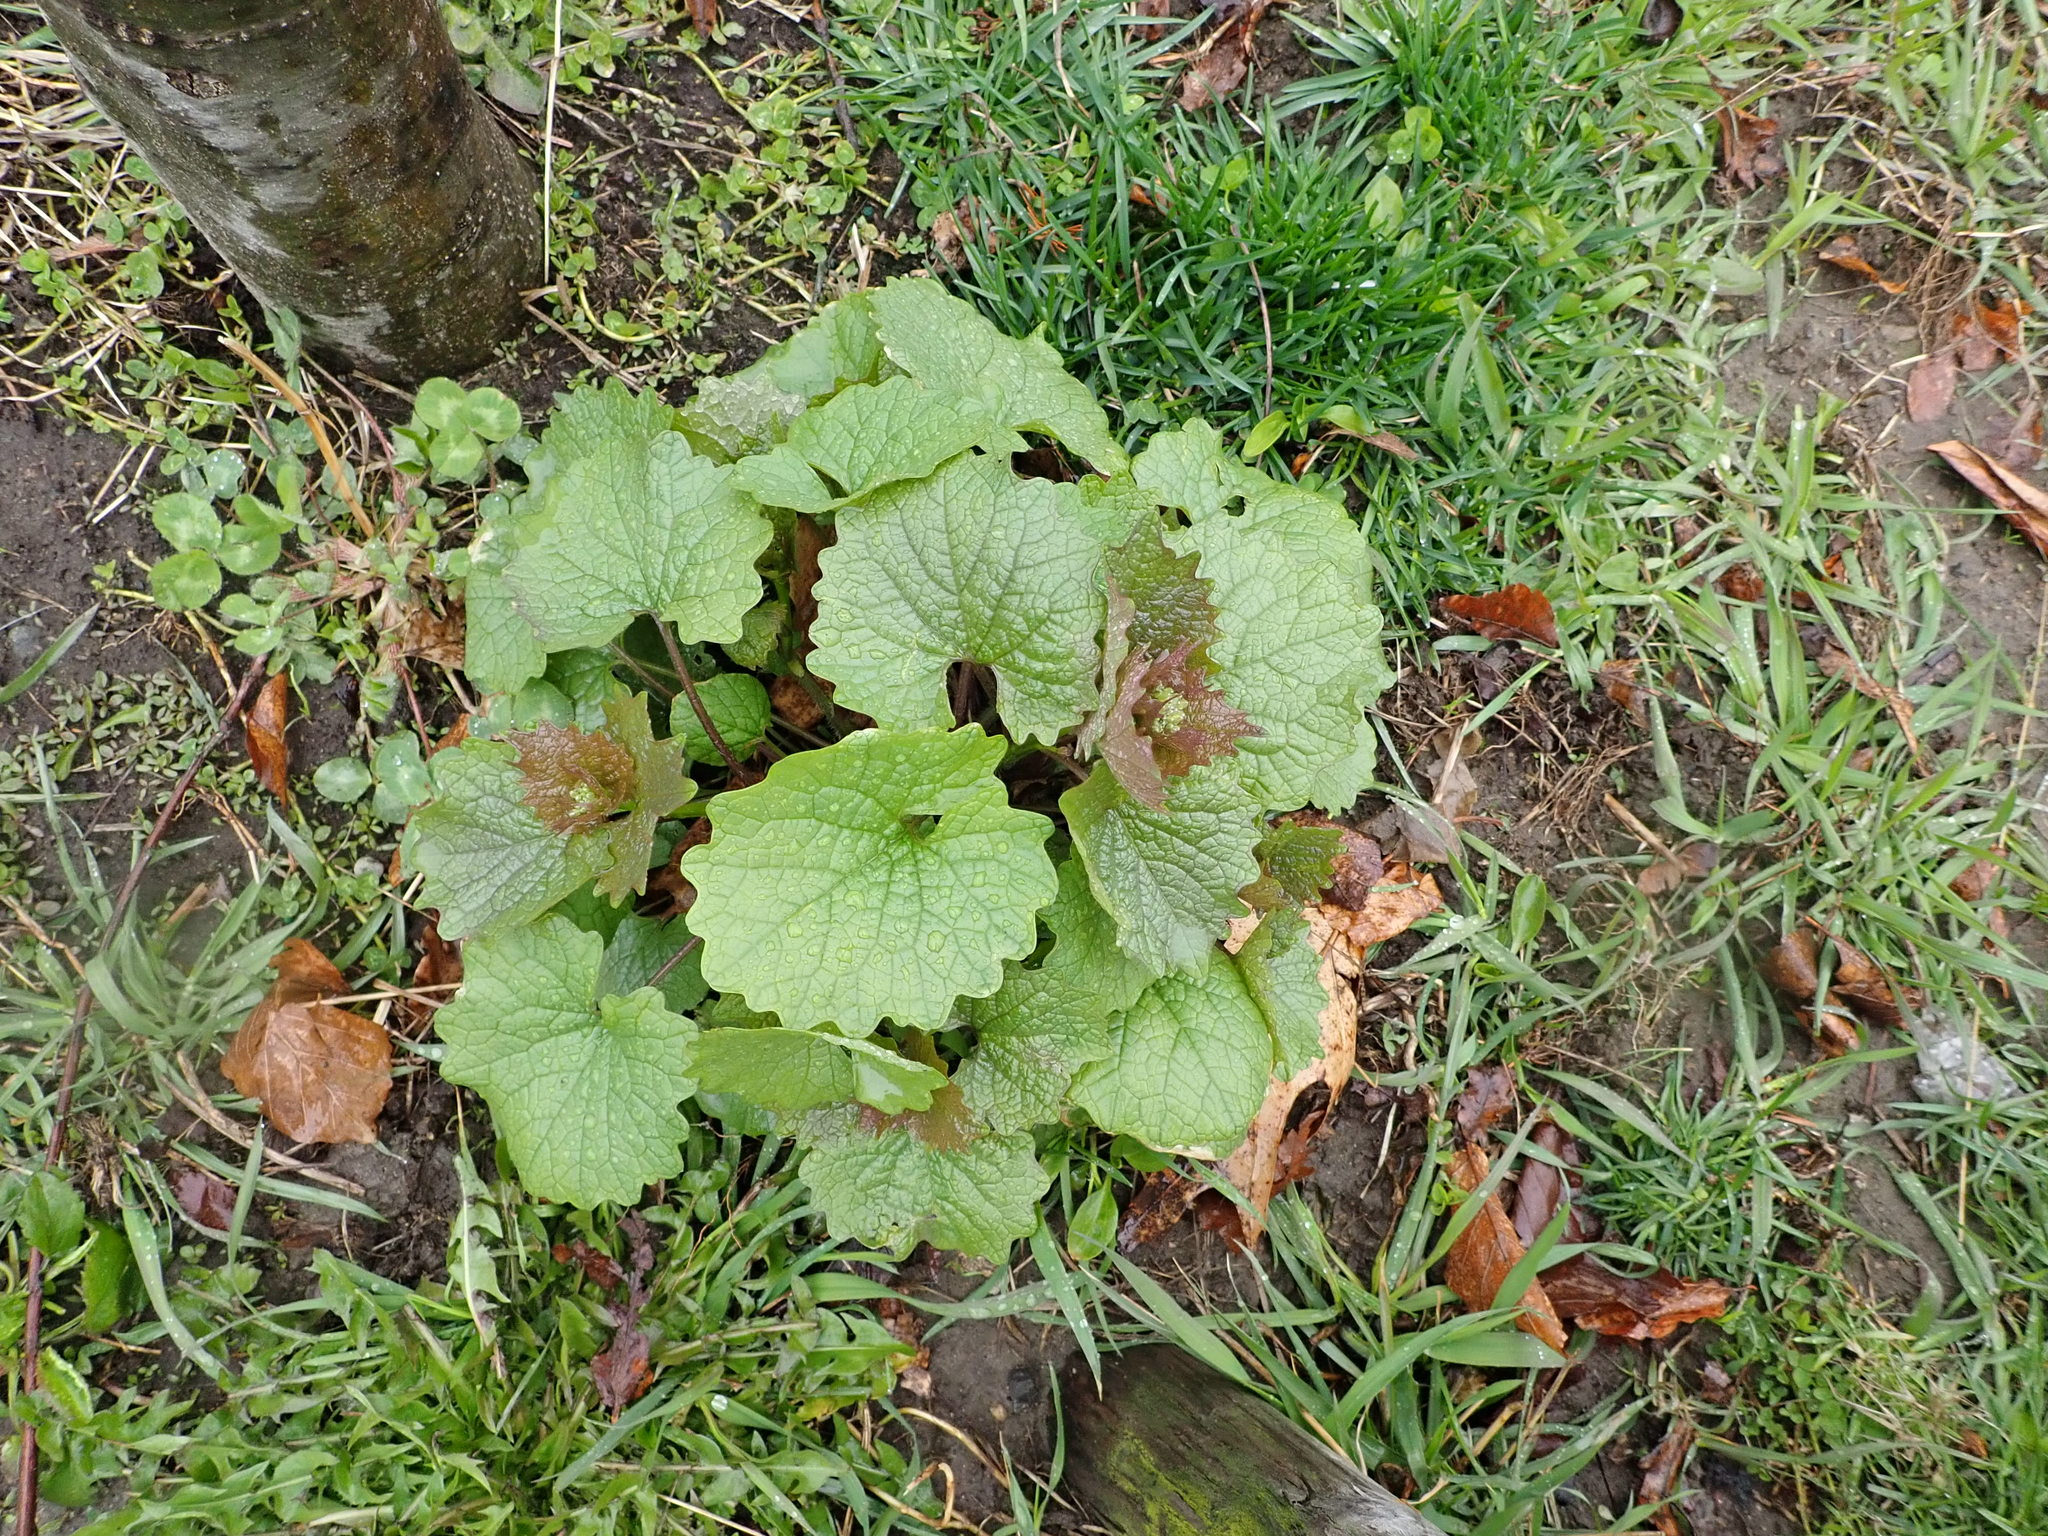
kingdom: Plantae
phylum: Tracheophyta
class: Magnoliopsida
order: Brassicales
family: Brassicaceae
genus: Alliaria
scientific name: Alliaria petiolata
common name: Garlic mustard
